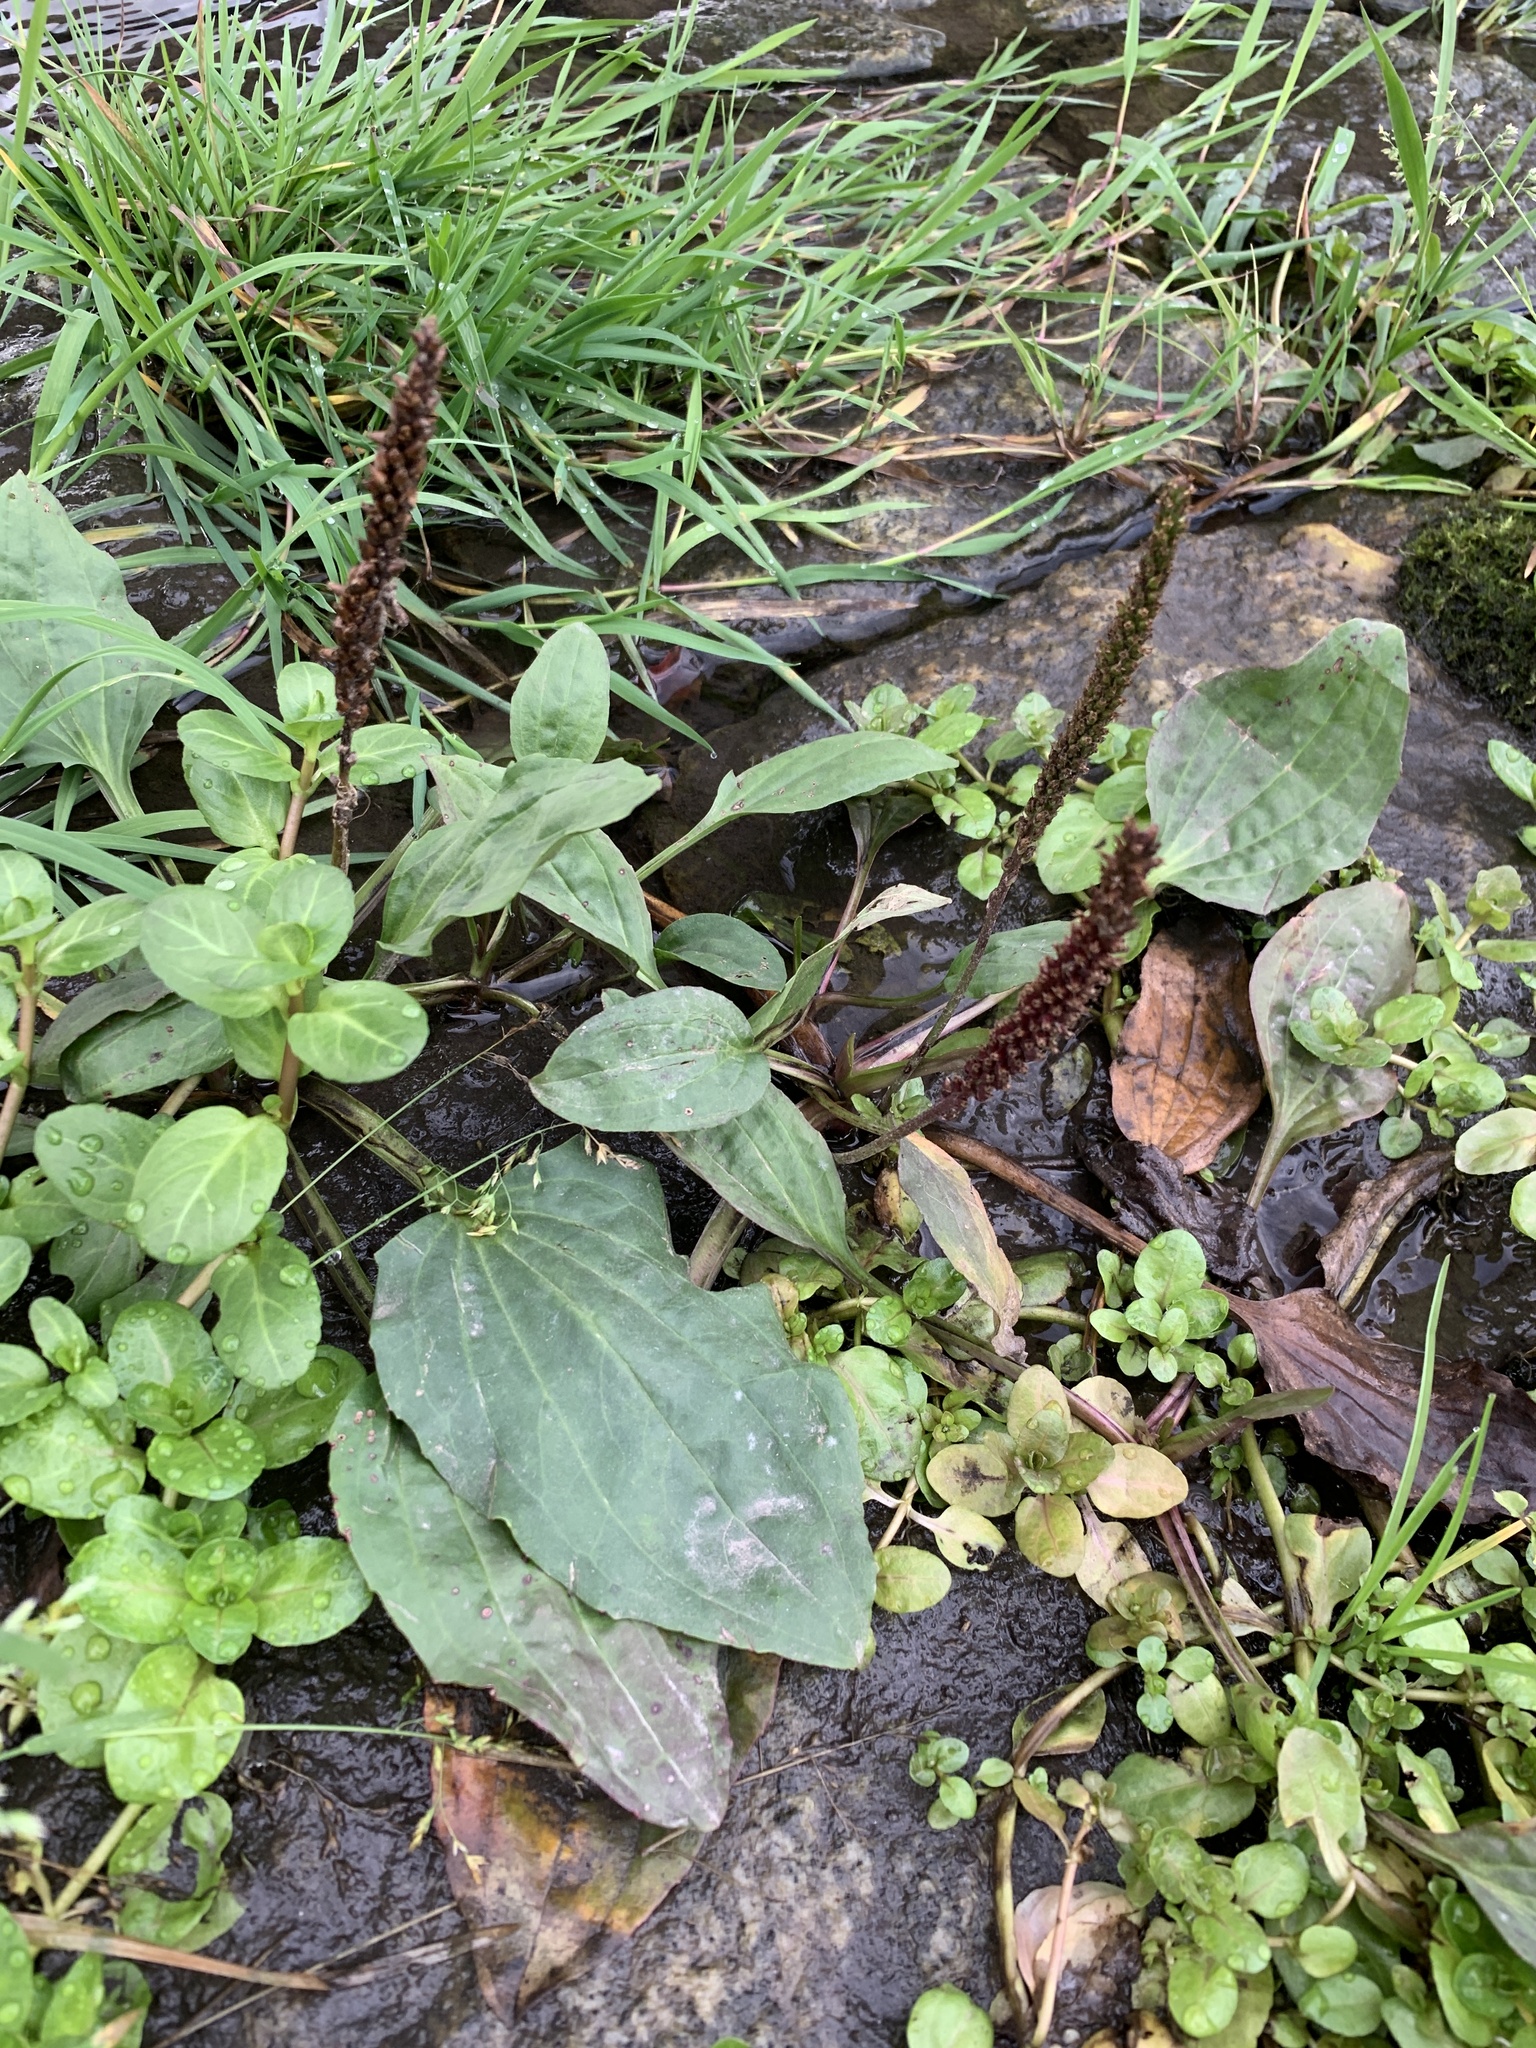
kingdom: Plantae
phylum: Tracheophyta
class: Magnoliopsida
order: Lamiales
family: Plantaginaceae
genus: Plantago
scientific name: Plantago major
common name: Common plantain
